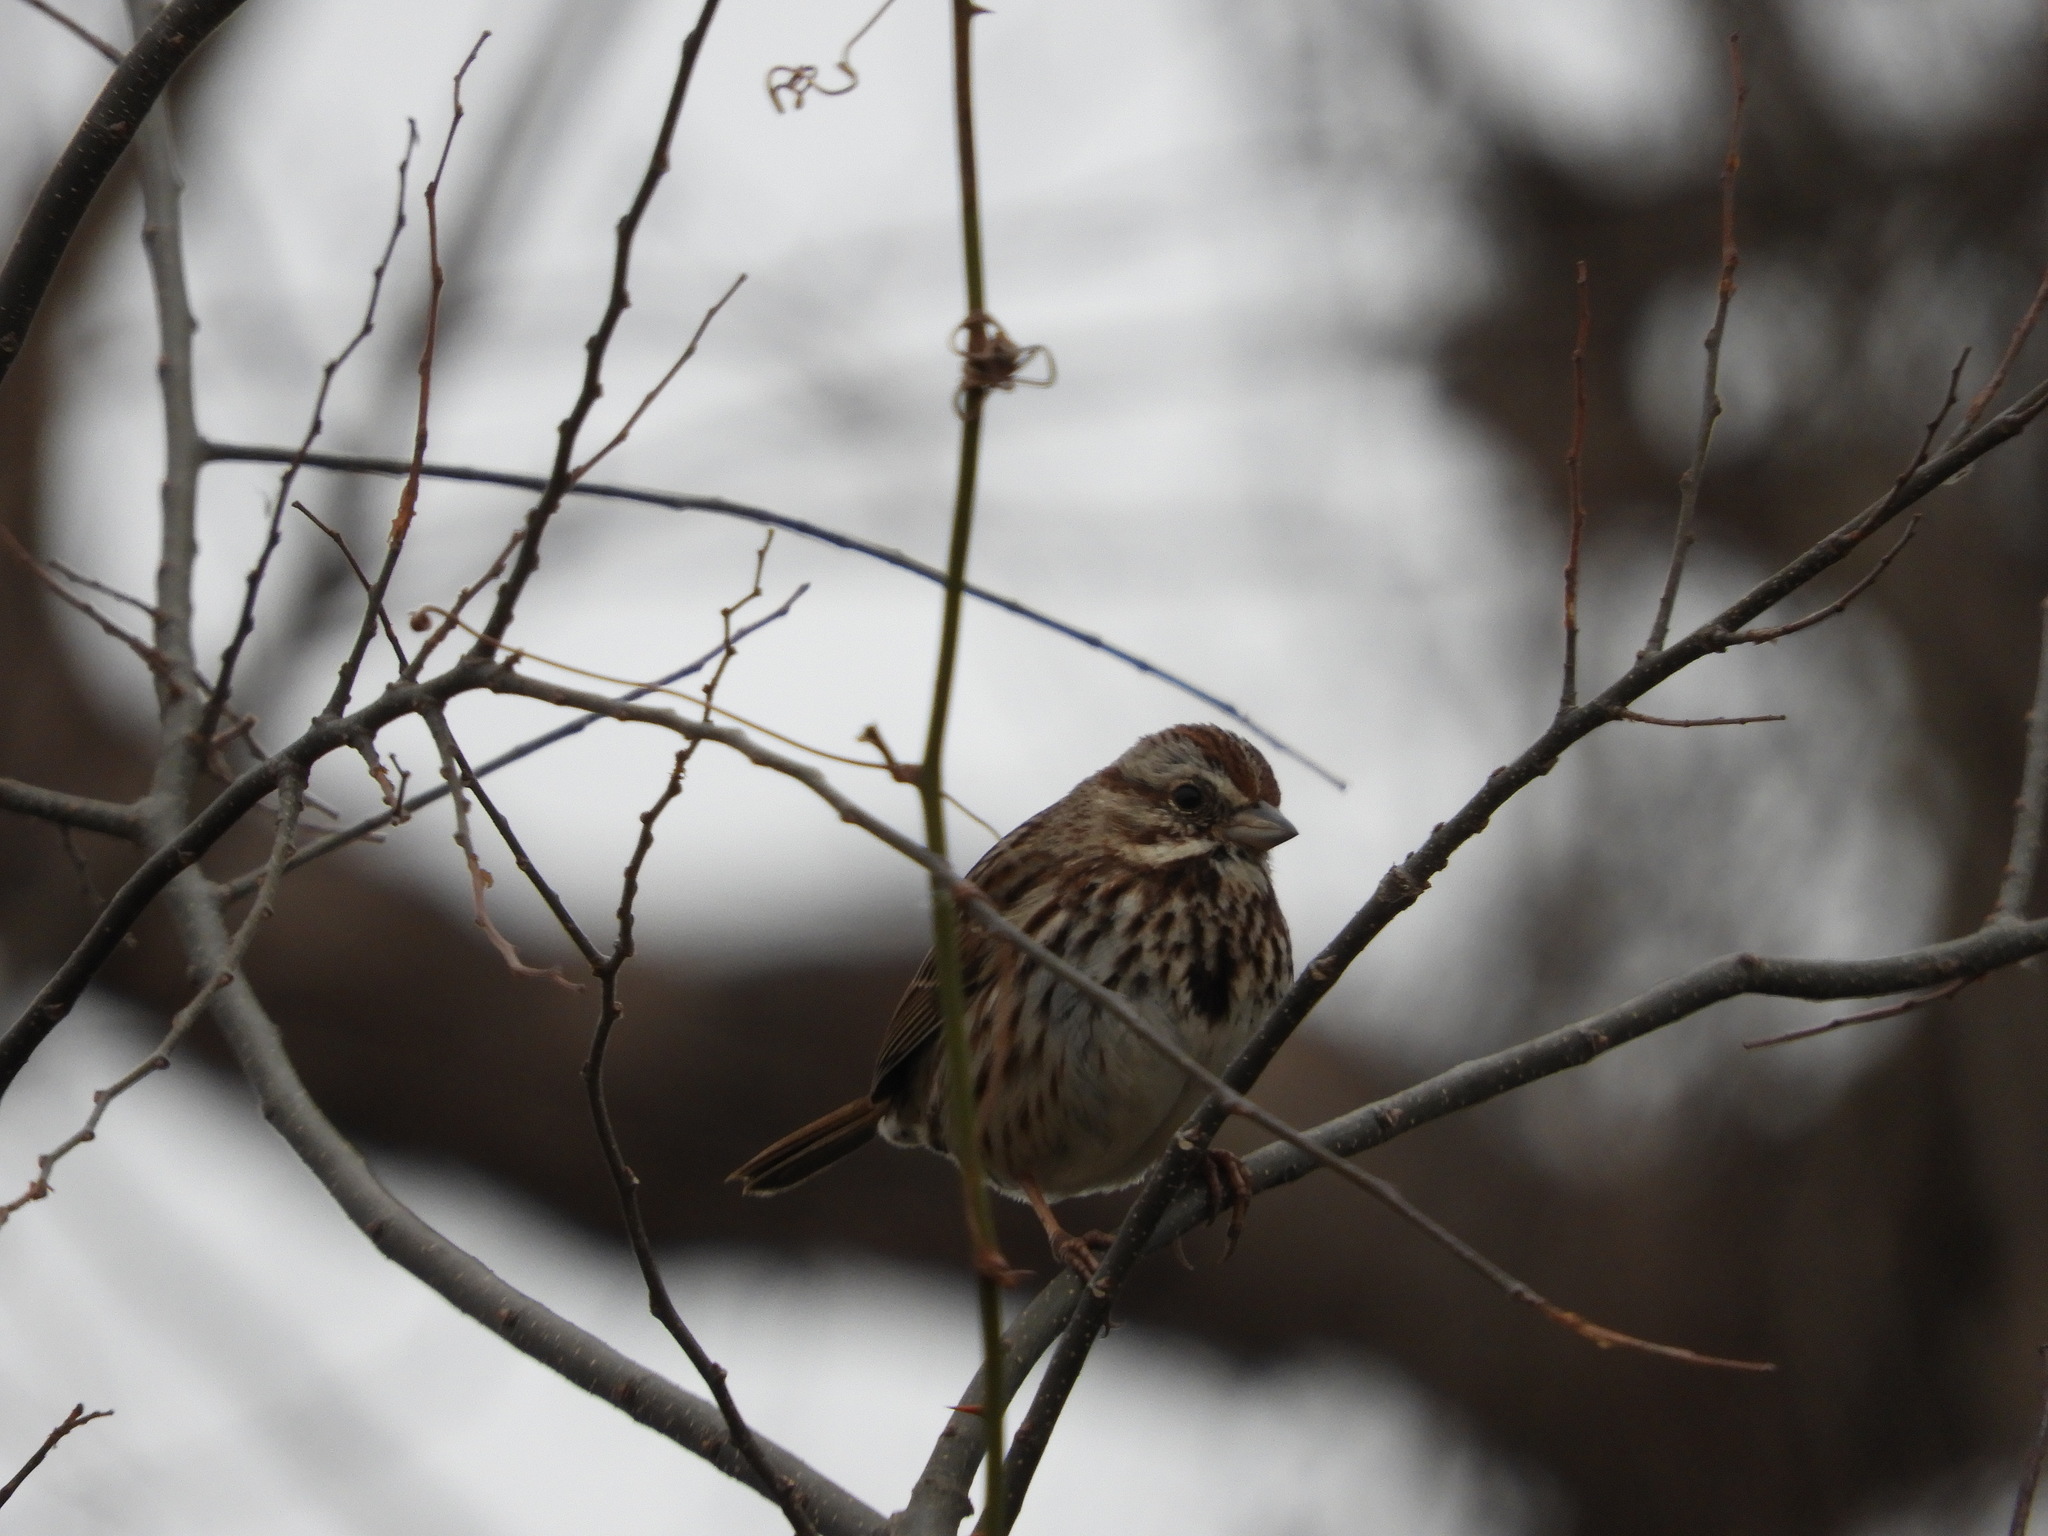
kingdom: Animalia
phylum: Chordata
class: Aves
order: Passeriformes
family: Passerellidae
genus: Melospiza
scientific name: Melospiza melodia
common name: Song sparrow
